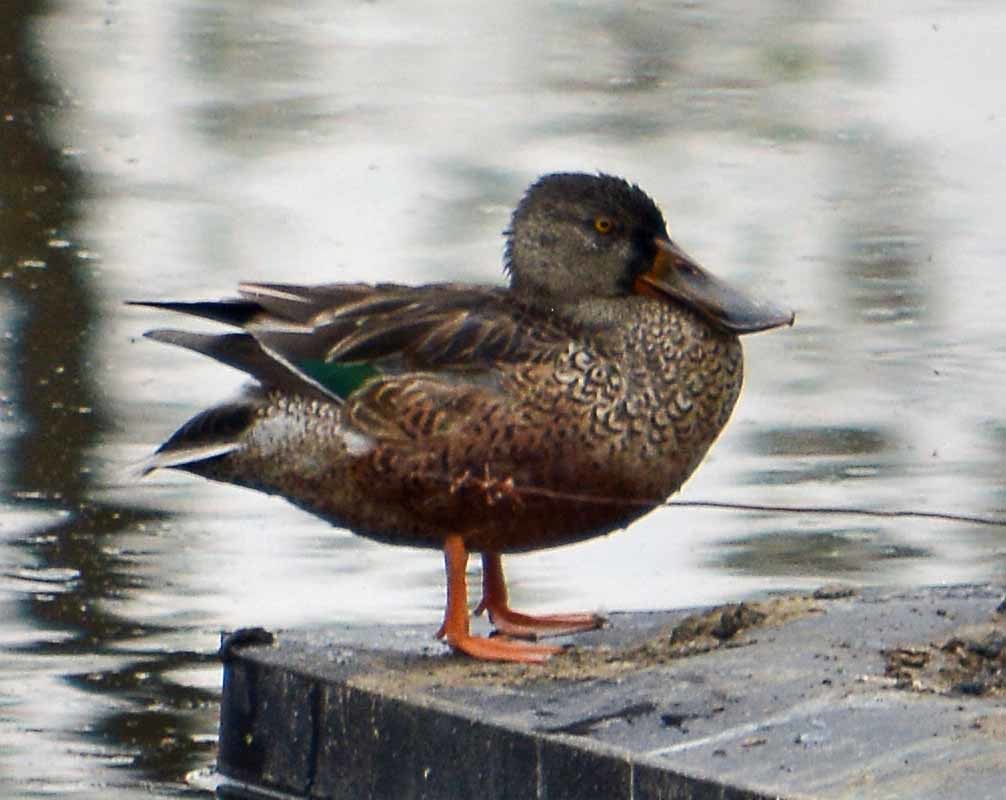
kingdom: Animalia
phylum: Chordata
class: Aves
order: Anseriformes
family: Anatidae
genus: Spatula
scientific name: Spatula clypeata
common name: Northern shoveler
